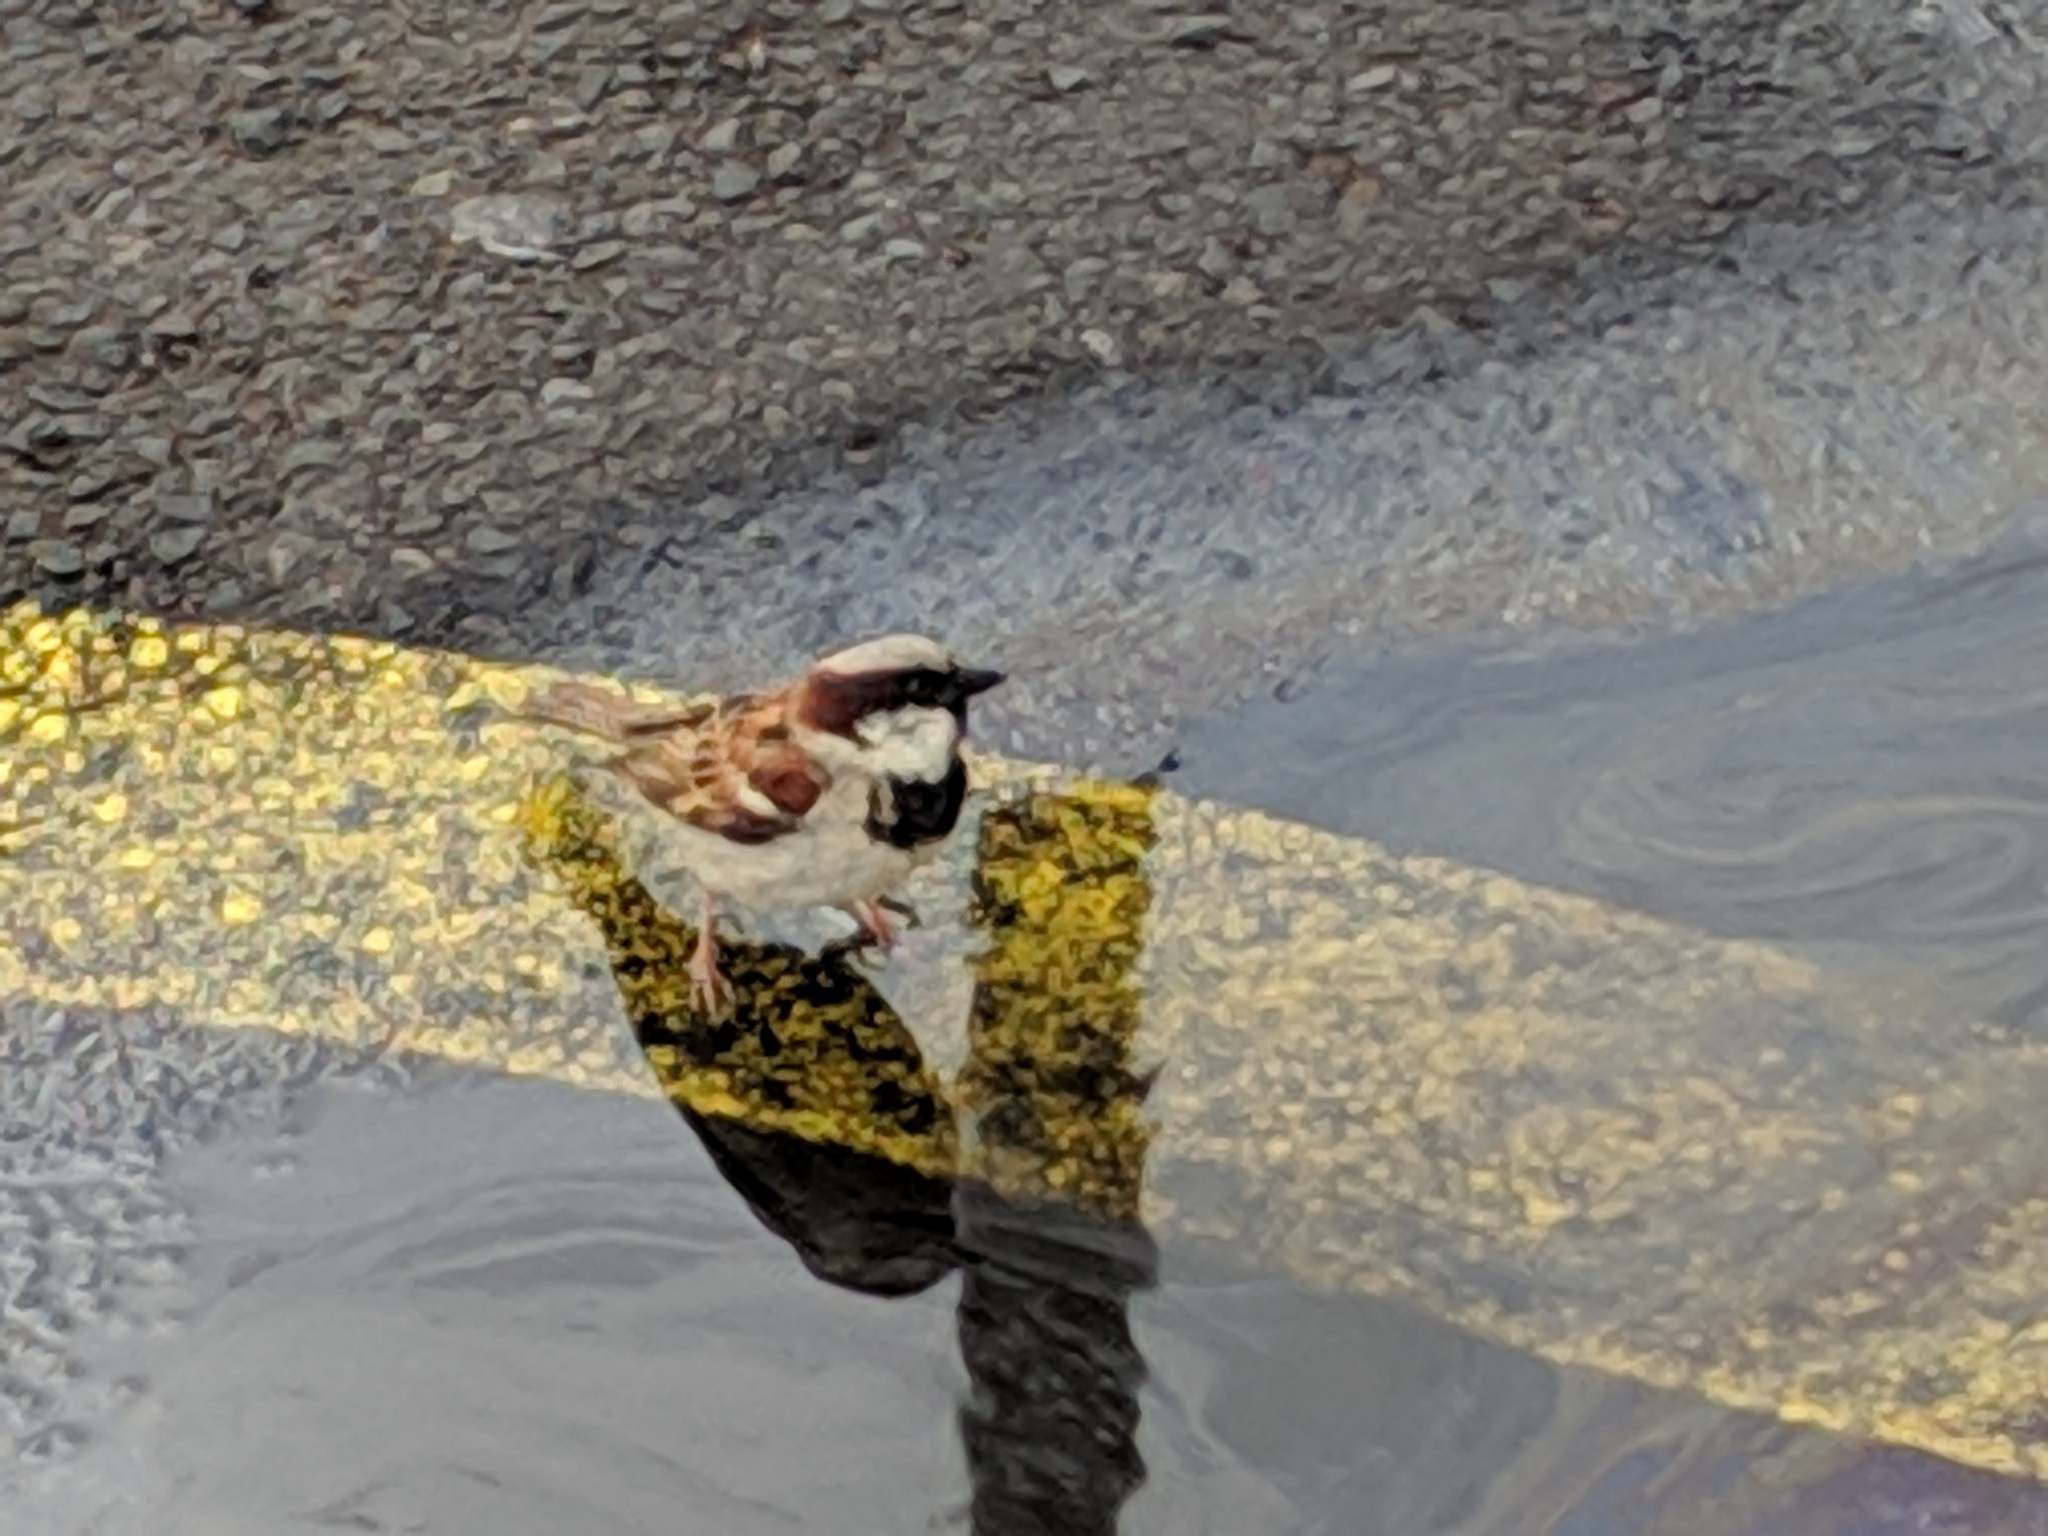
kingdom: Animalia
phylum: Chordata
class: Aves
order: Passeriformes
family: Passeridae
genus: Passer
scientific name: Passer domesticus
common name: House sparrow
